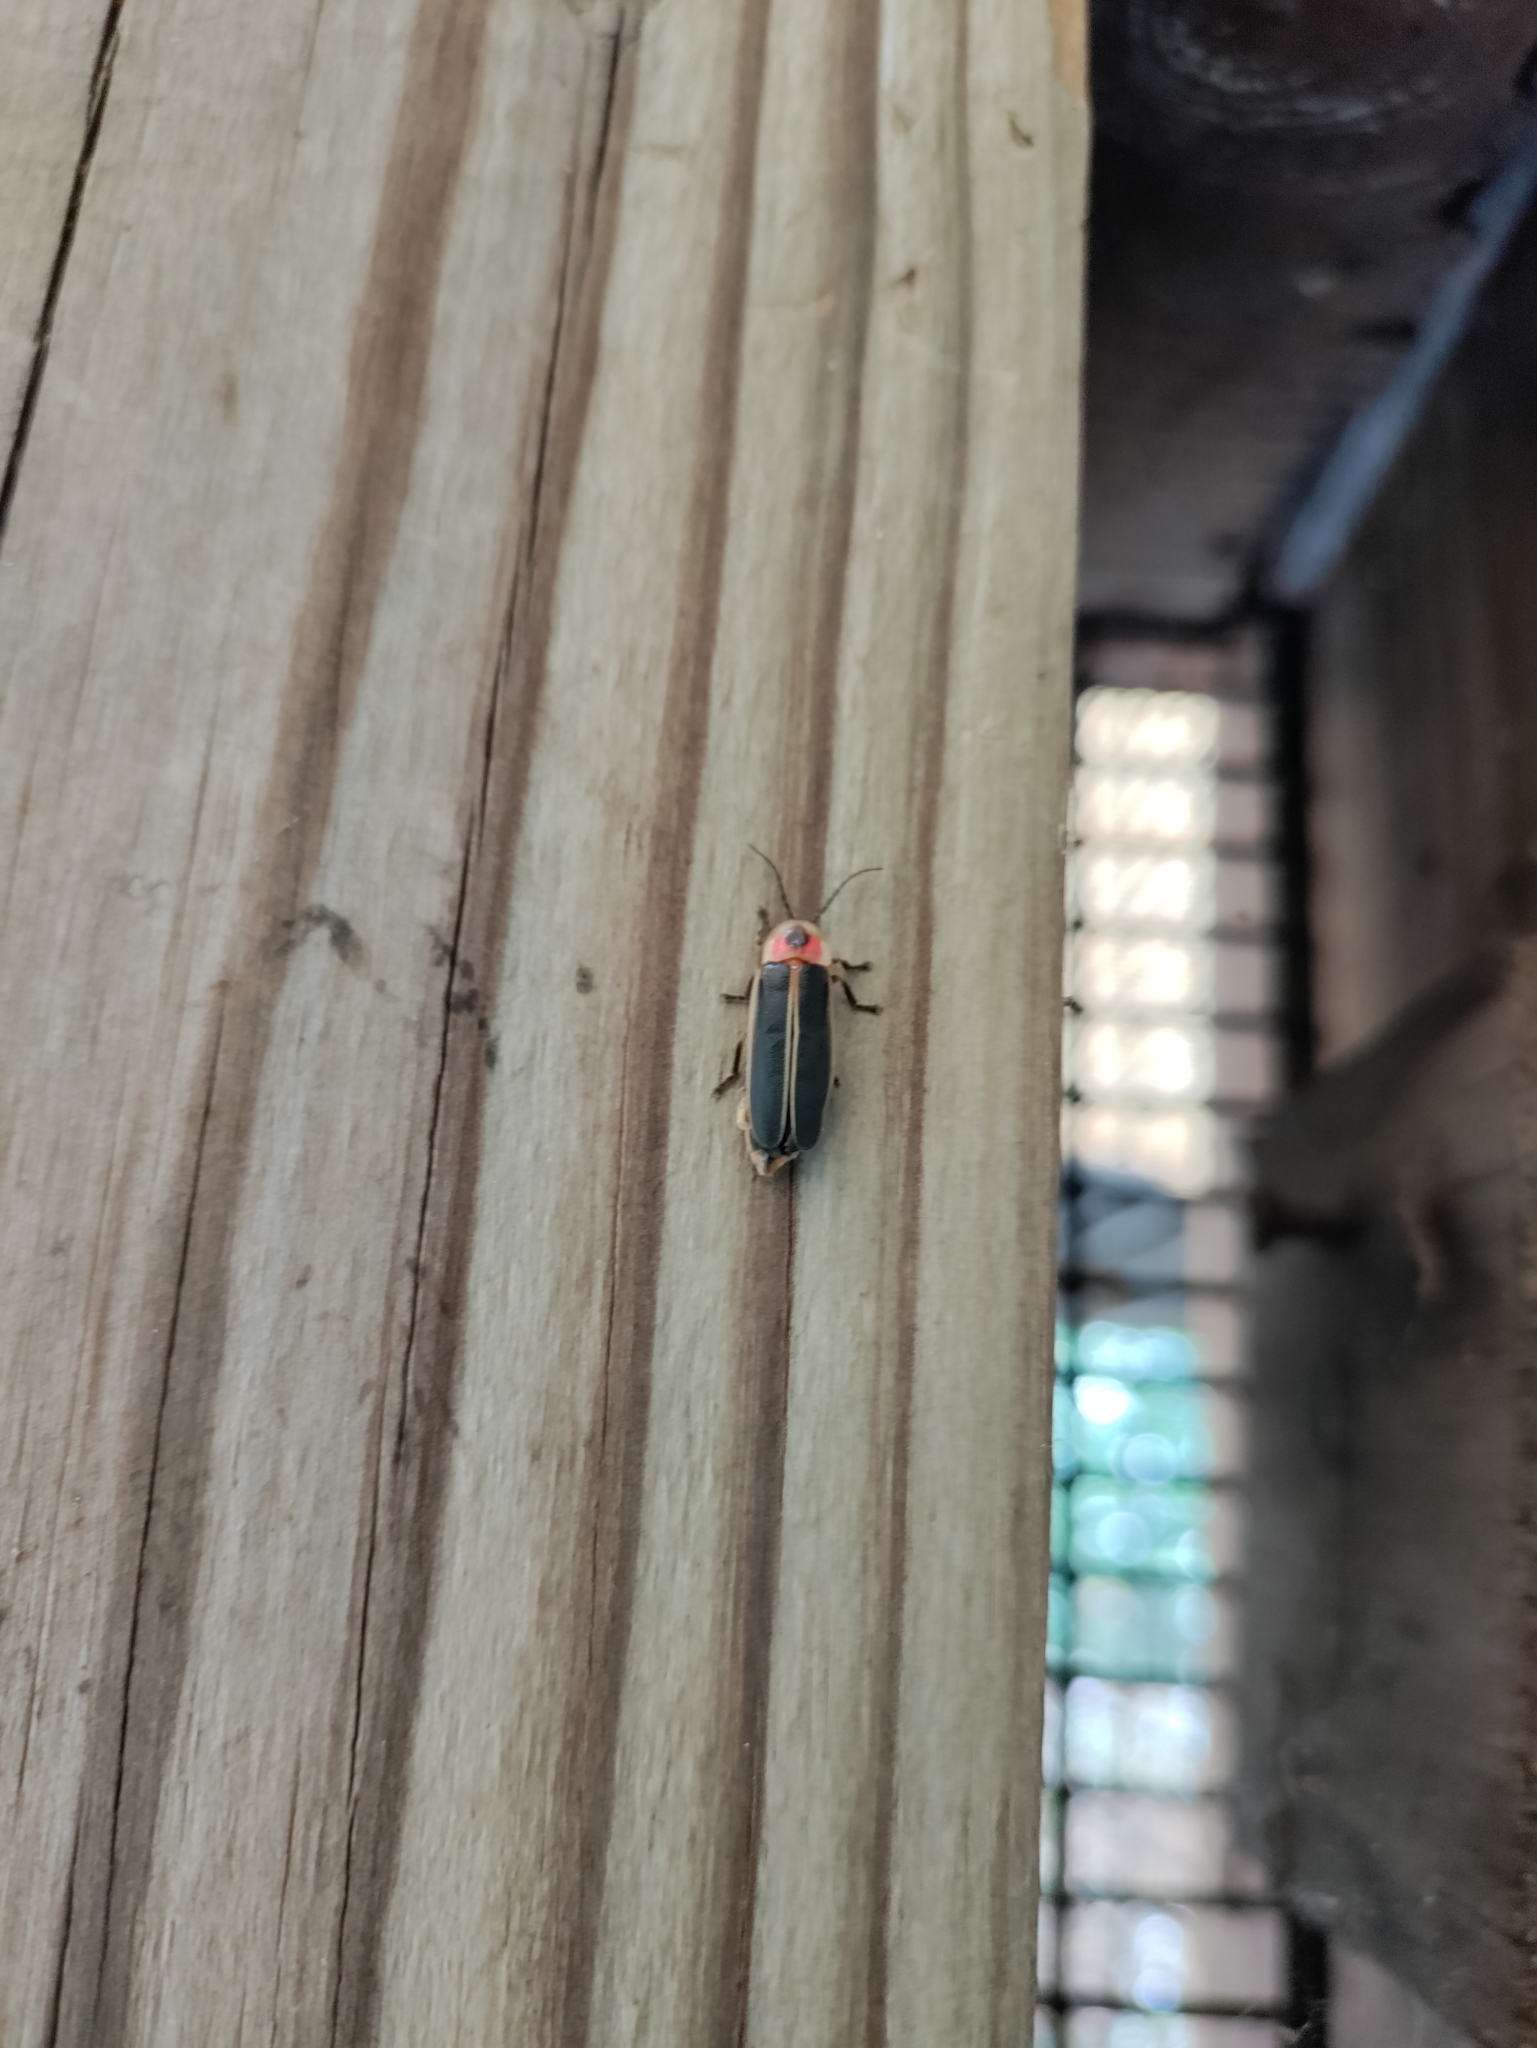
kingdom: Animalia
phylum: Arthropoda
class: Insecta
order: Coleoptera
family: Lampyridae
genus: Photinus
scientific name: Photinus pyralis
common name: Big dipper firefly
